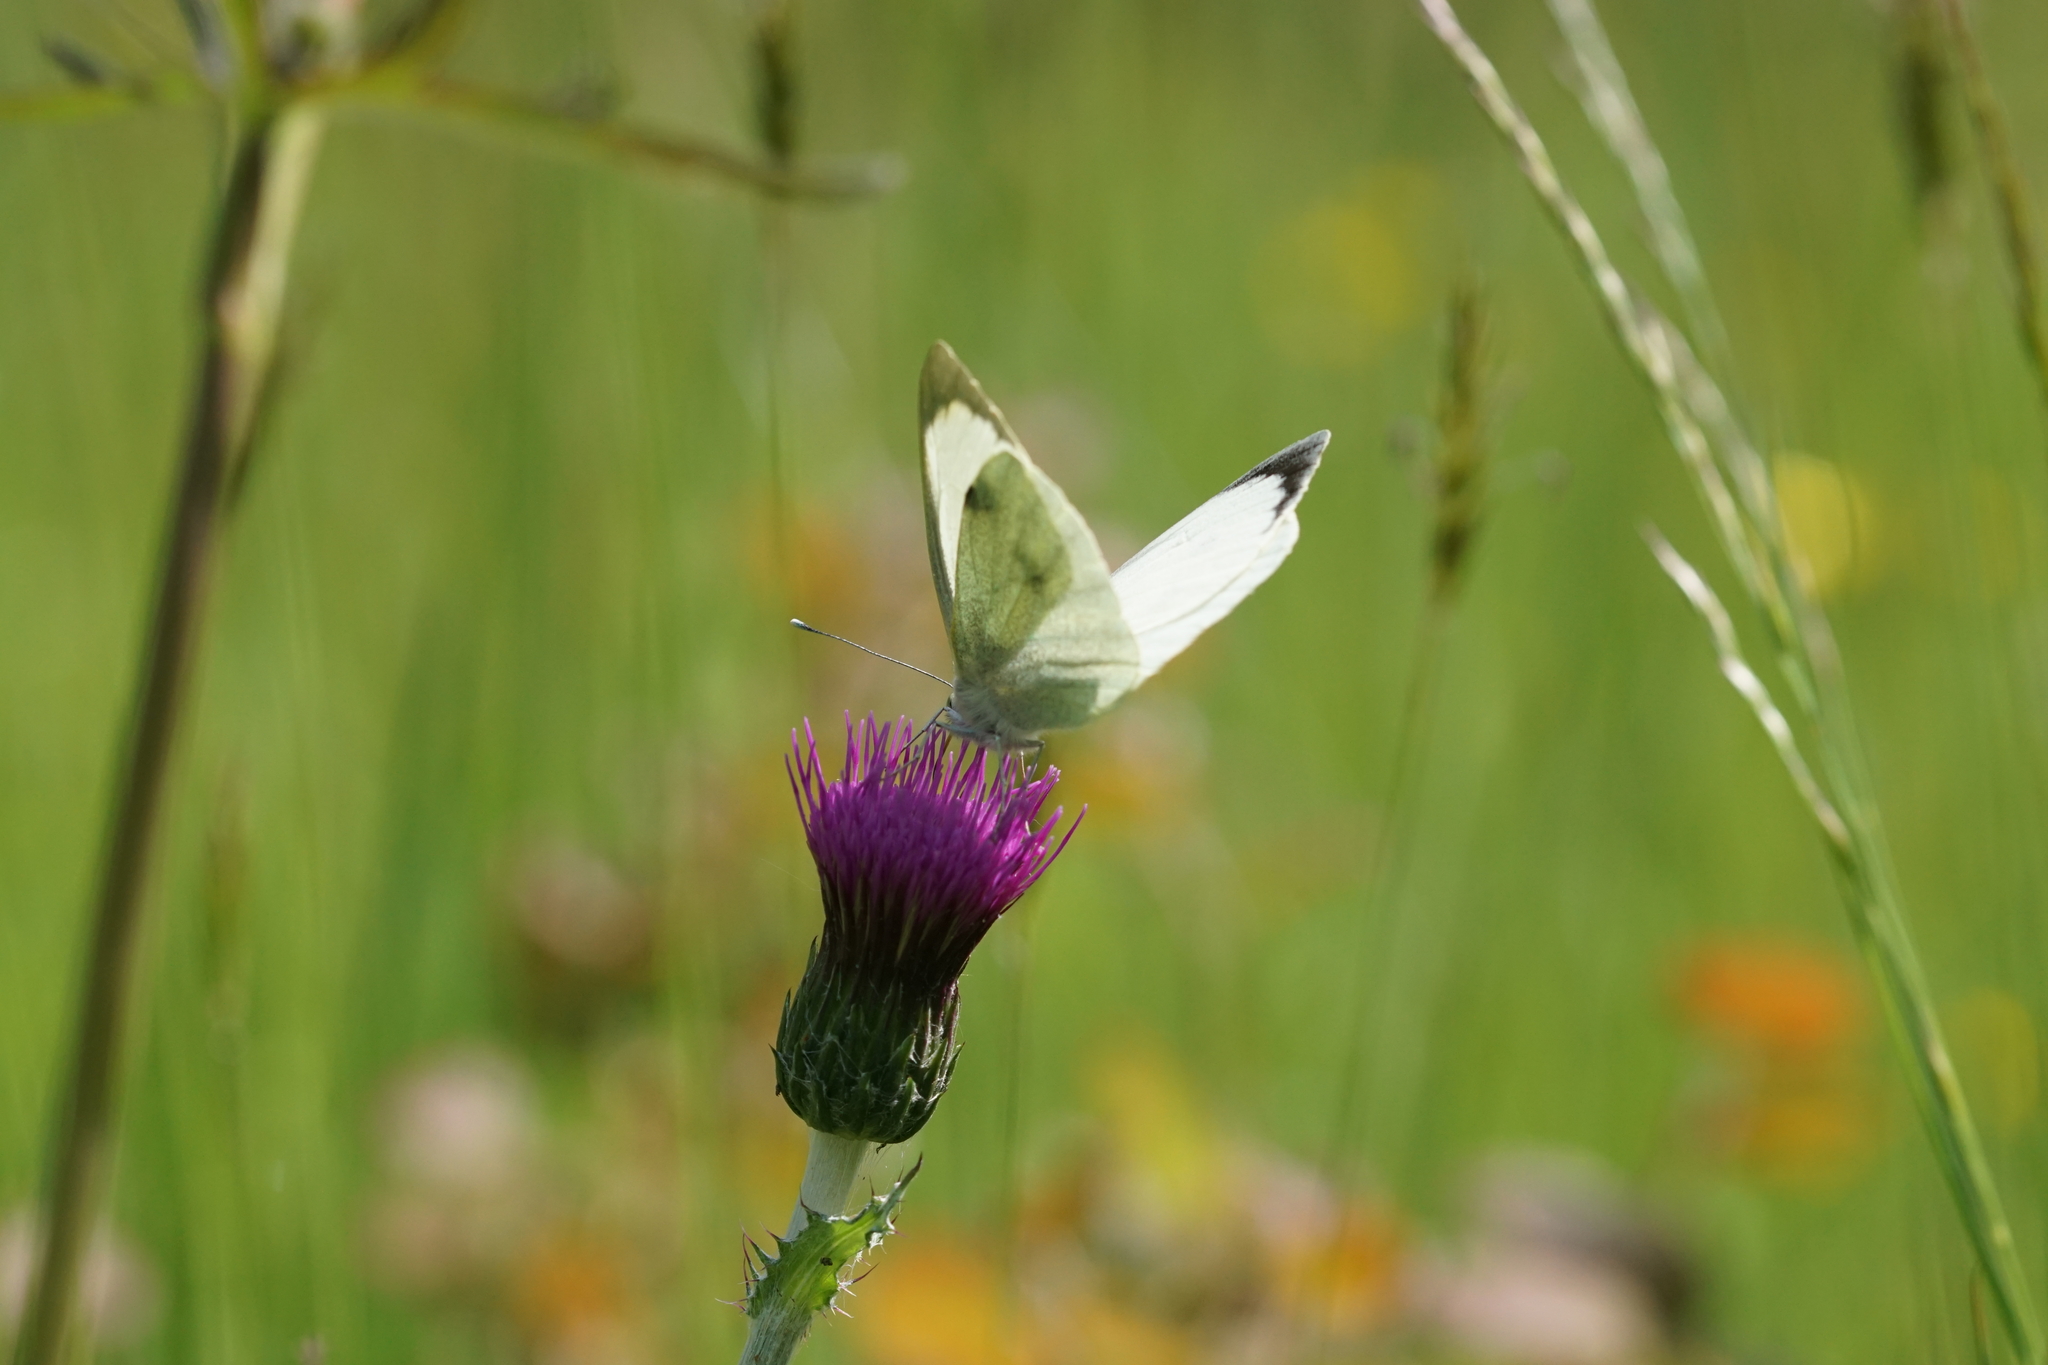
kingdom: Animalia
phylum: Arthropoda
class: Insecta
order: Lepidoptera
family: Pieridae
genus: Pieris
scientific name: Pieris brassicae
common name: Large white
